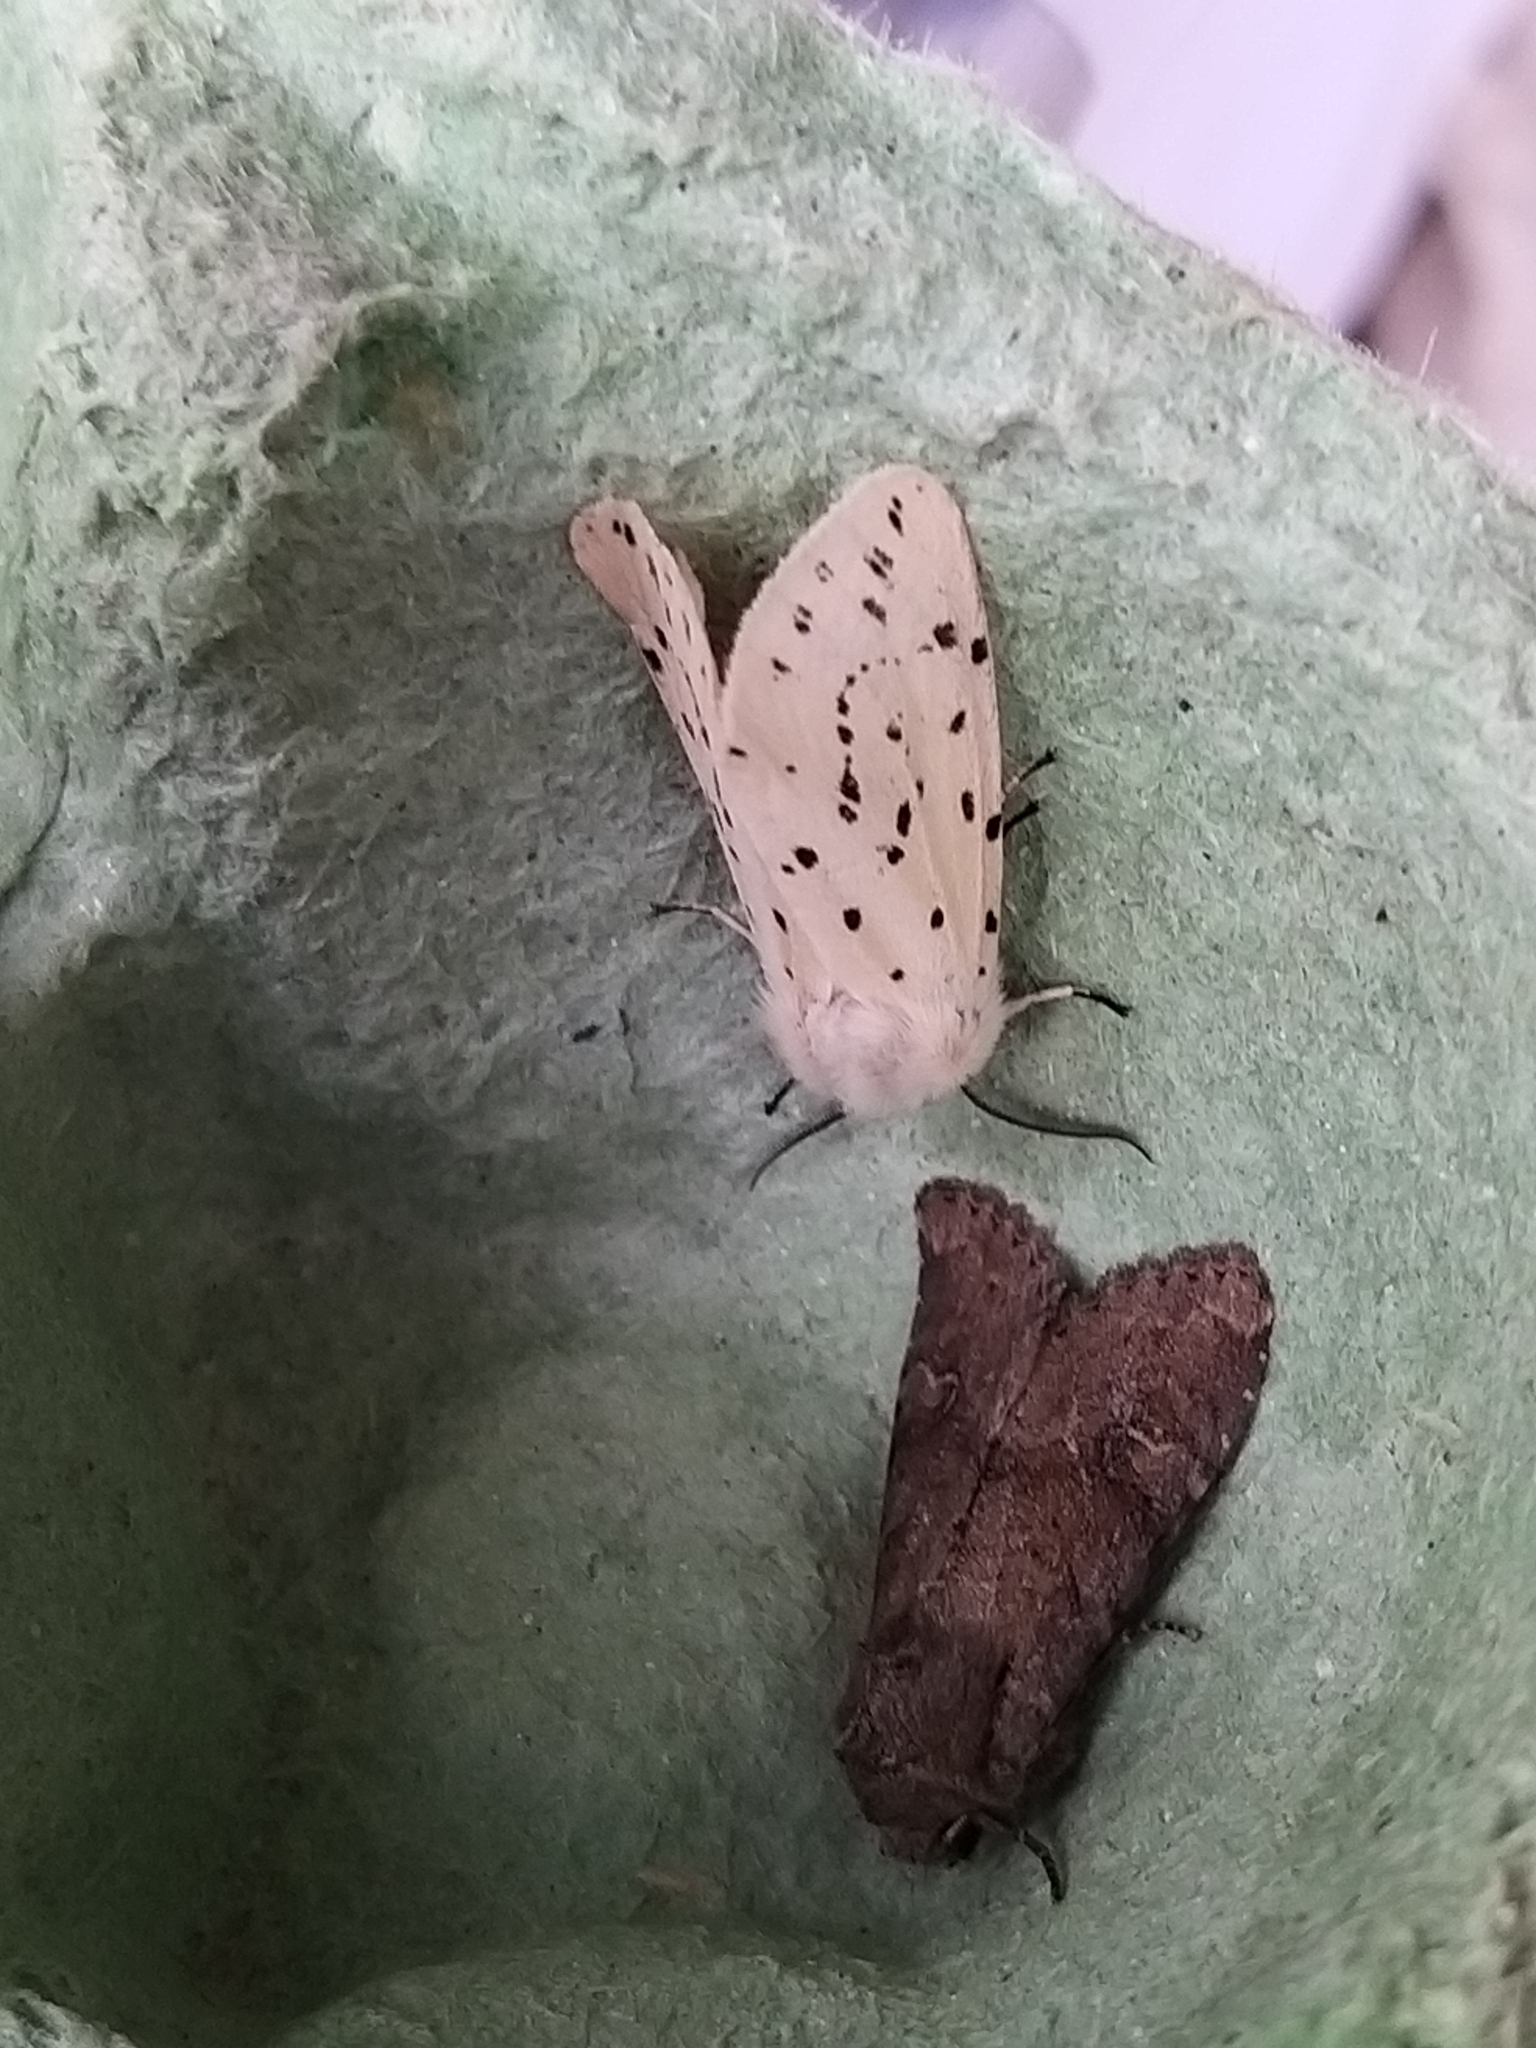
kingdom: Animalia
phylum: Arthropoda
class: Insecta
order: Lepidoptera
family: Erebidae
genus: Spilosoma
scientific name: Spilosoma lubricipeda
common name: White ermine
